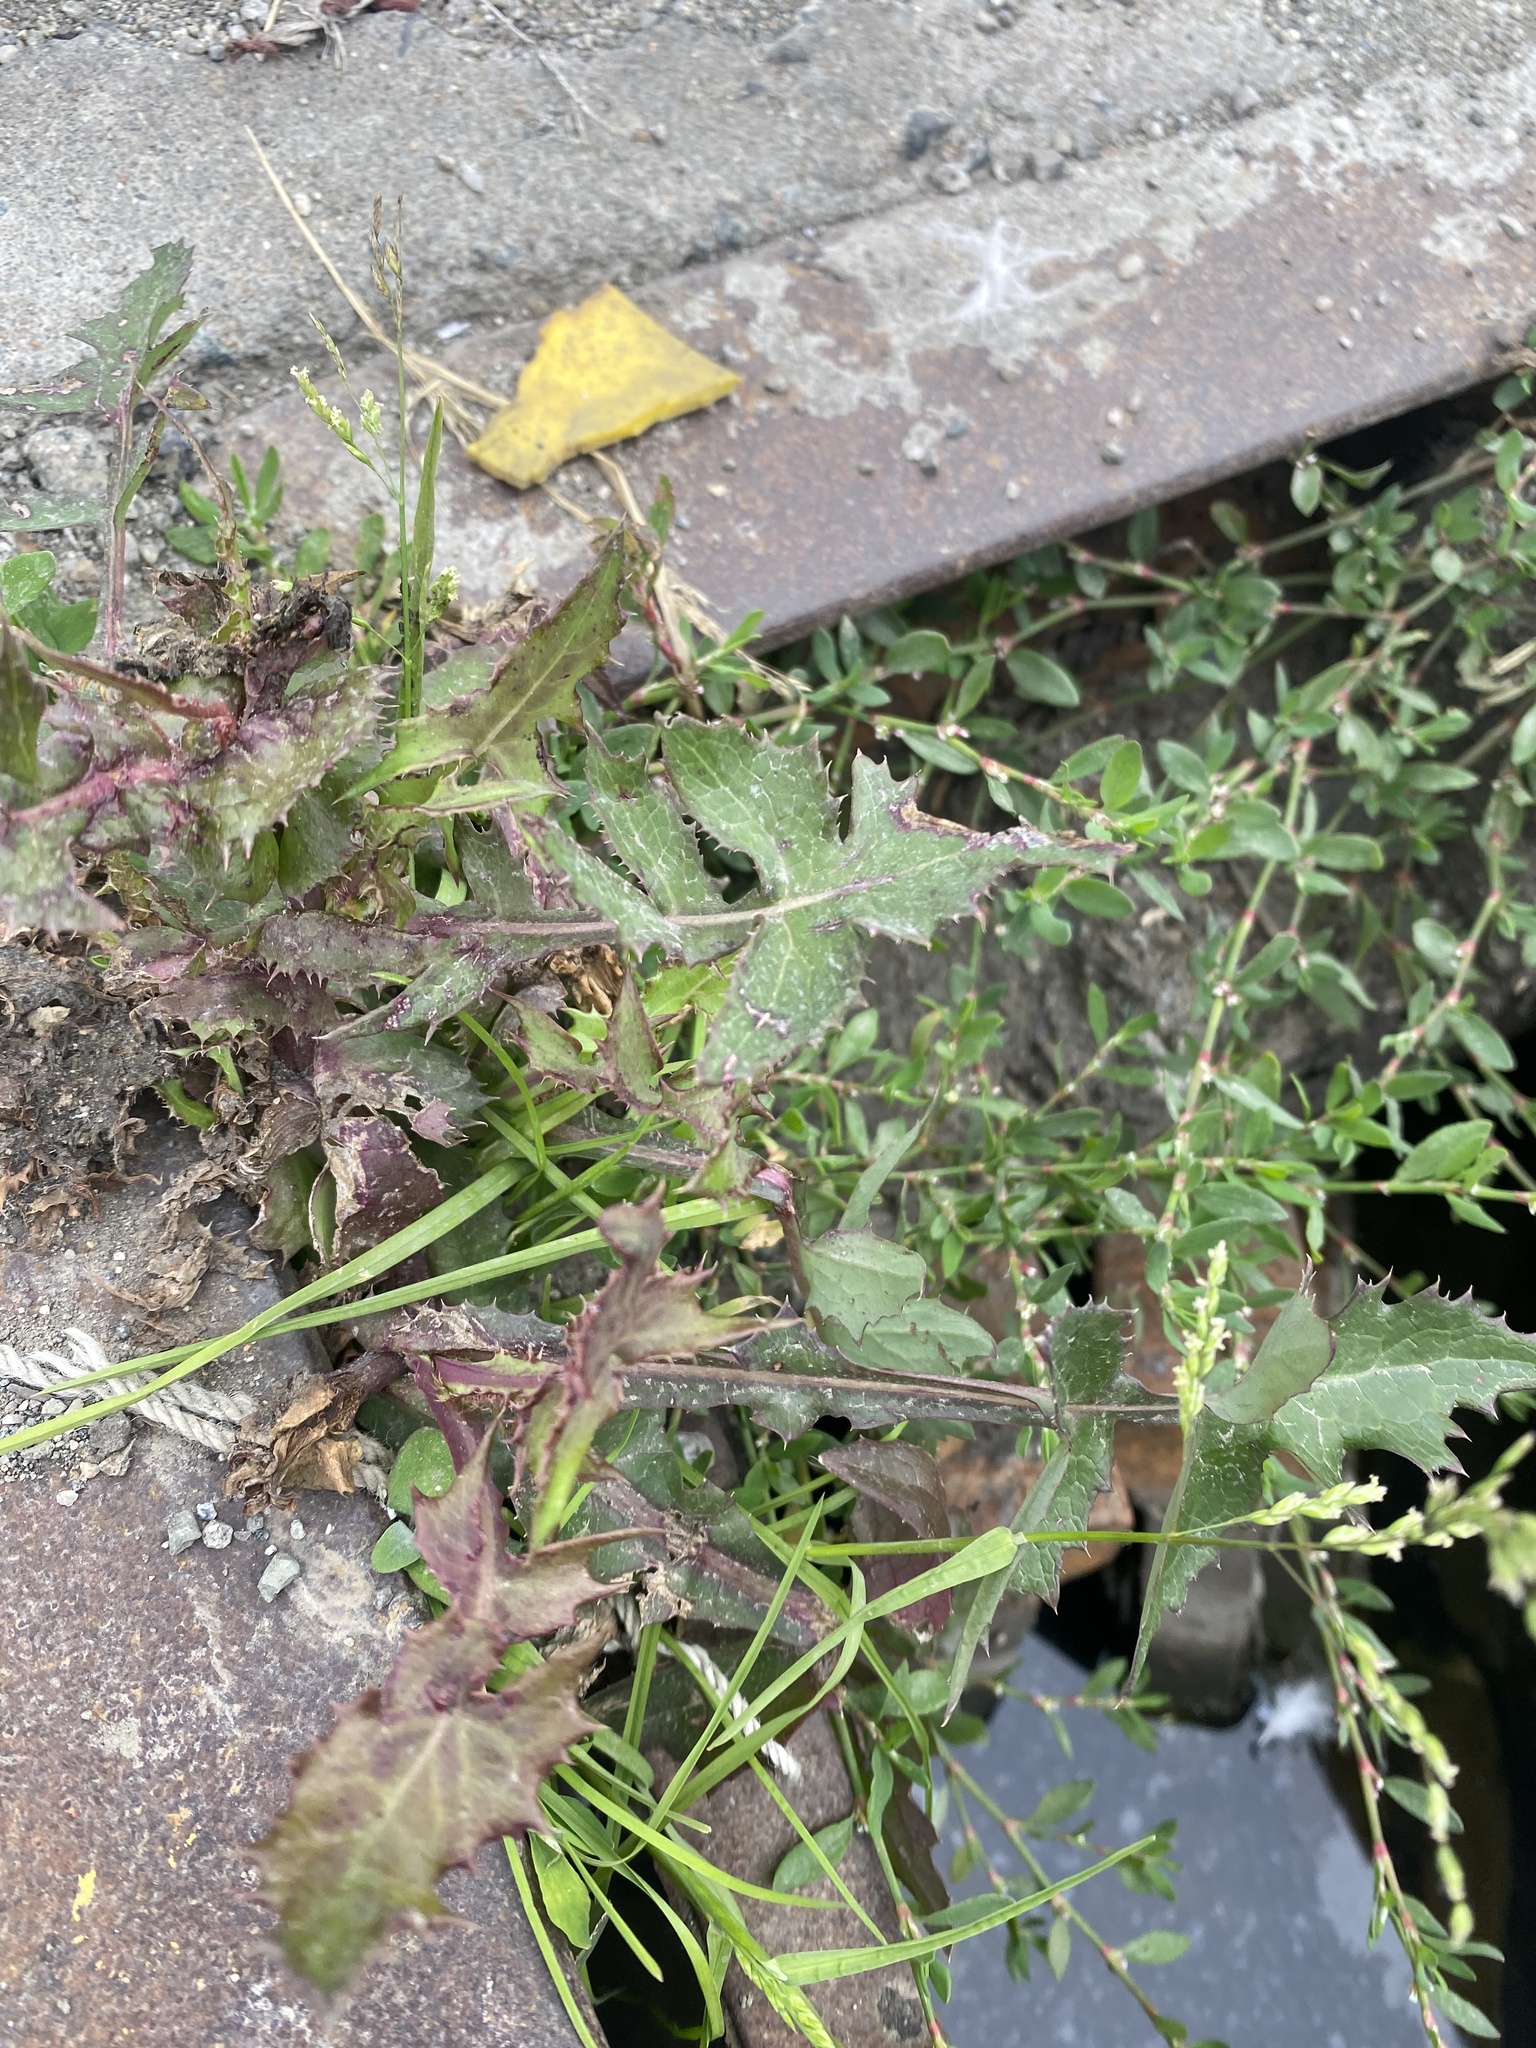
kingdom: Plantae
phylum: Tracheophyta
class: Magnoliopsida
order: Asterales
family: Asteraceae
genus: Sonchus
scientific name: Sonchus oleraceus
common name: Common sowthistle
